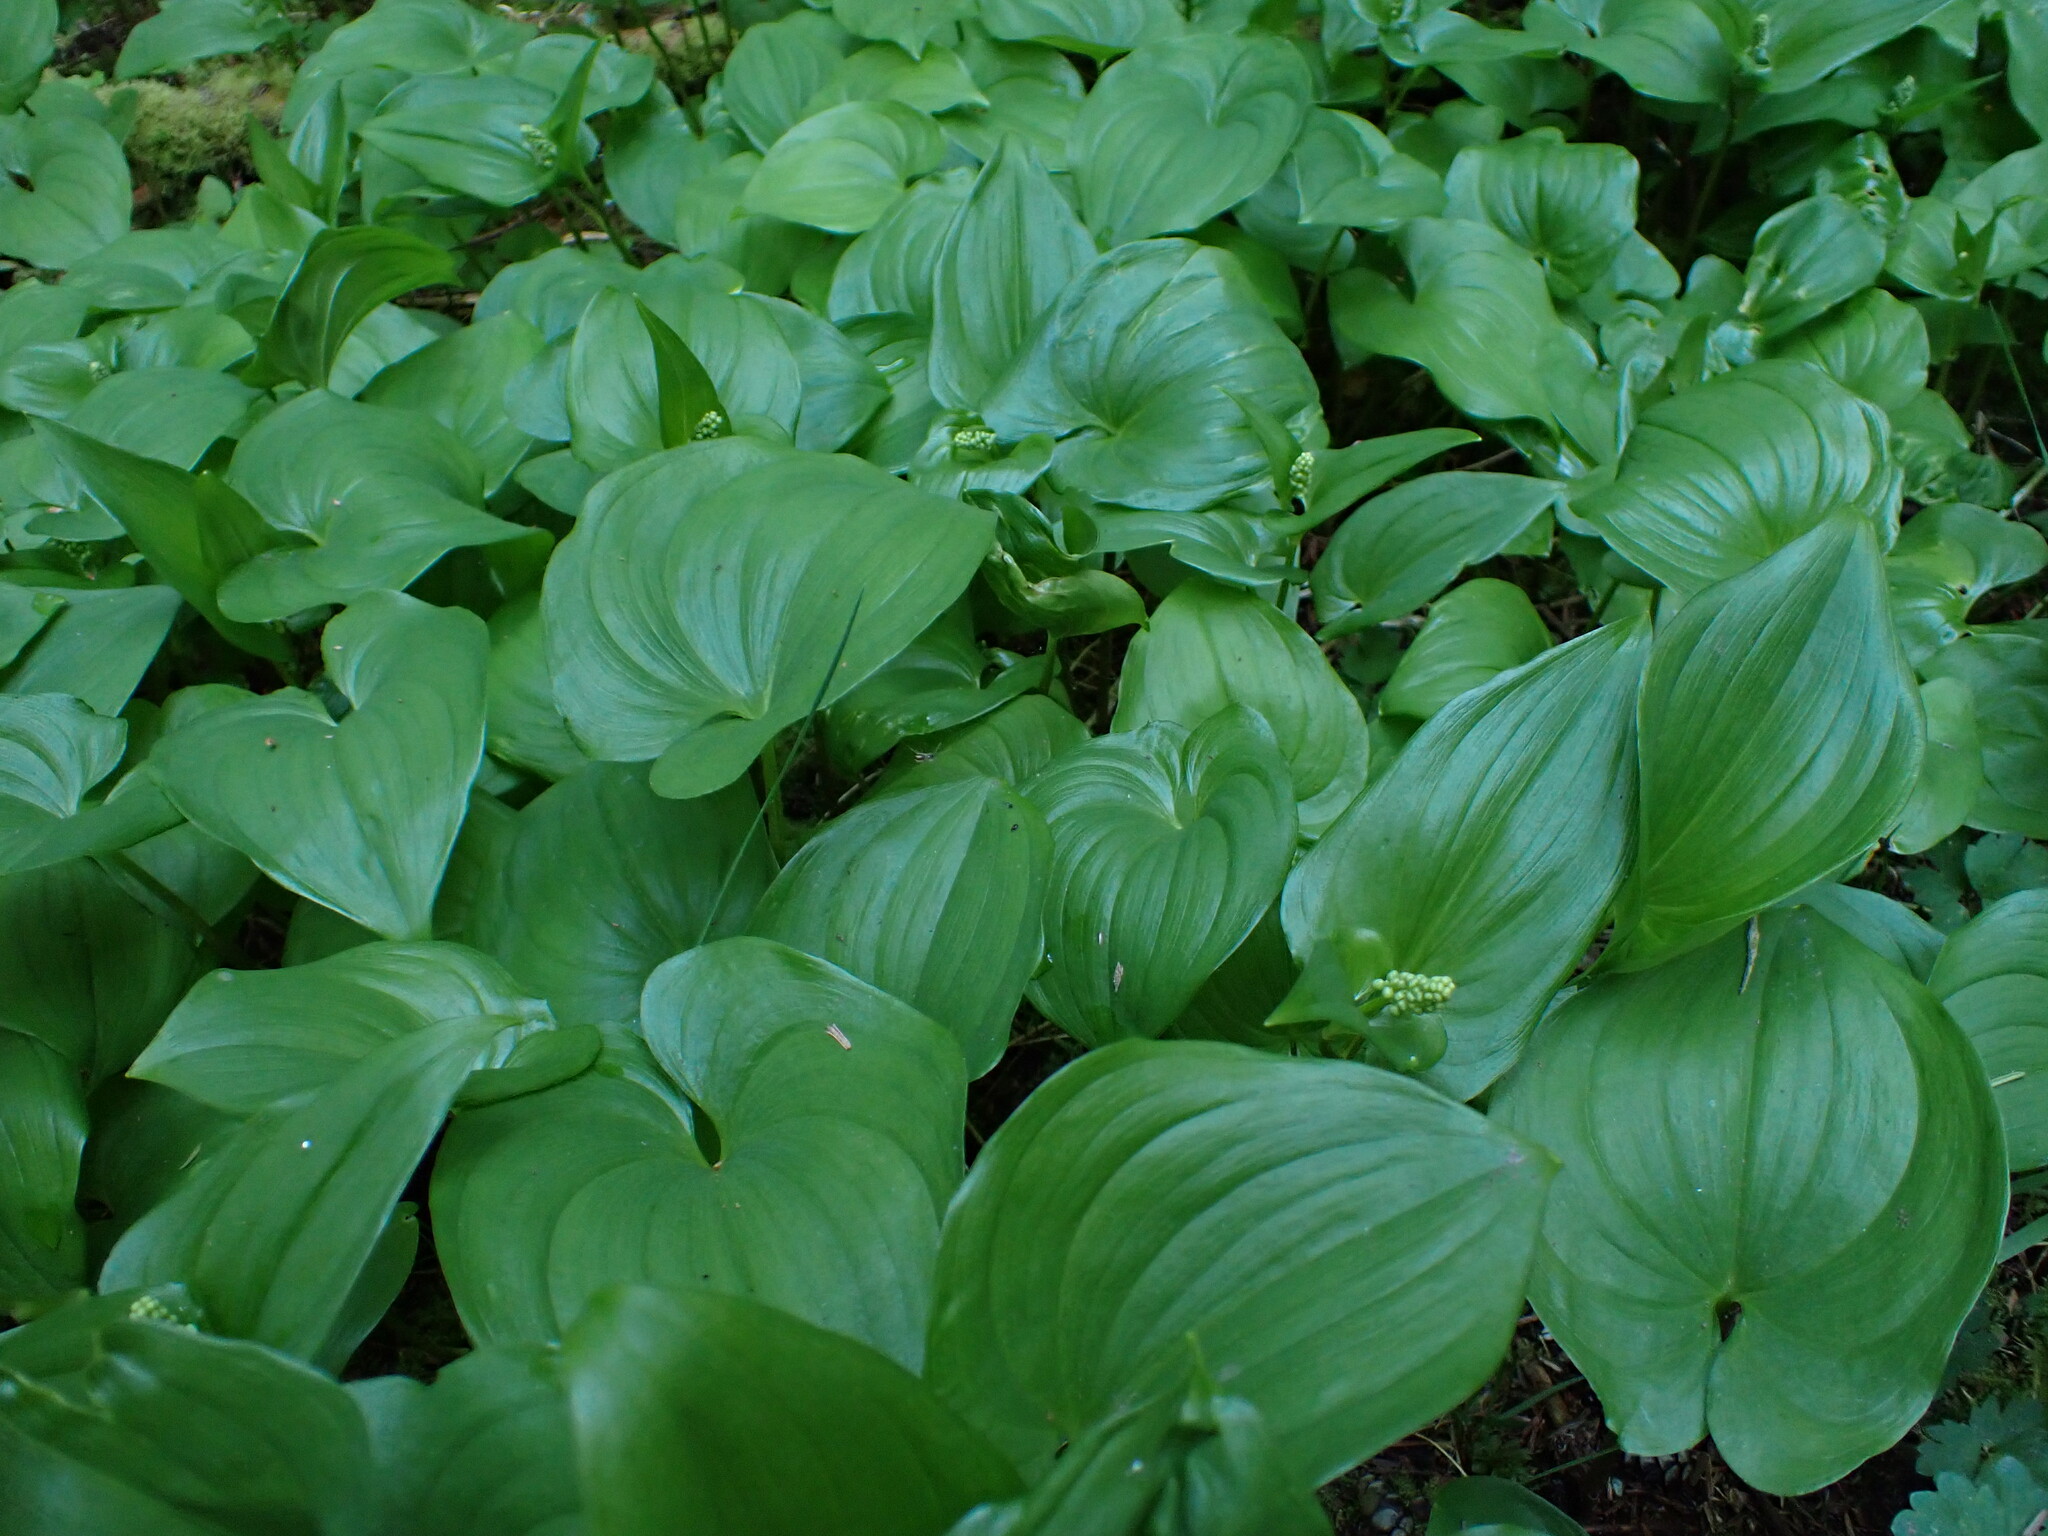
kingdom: Plantae
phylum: Tracheophyta
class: Liliopsida
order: Asparagales
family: Asparagaceae
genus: Maianthemum
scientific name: Maianthemum dilatatum
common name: False lily-of-the-valley
